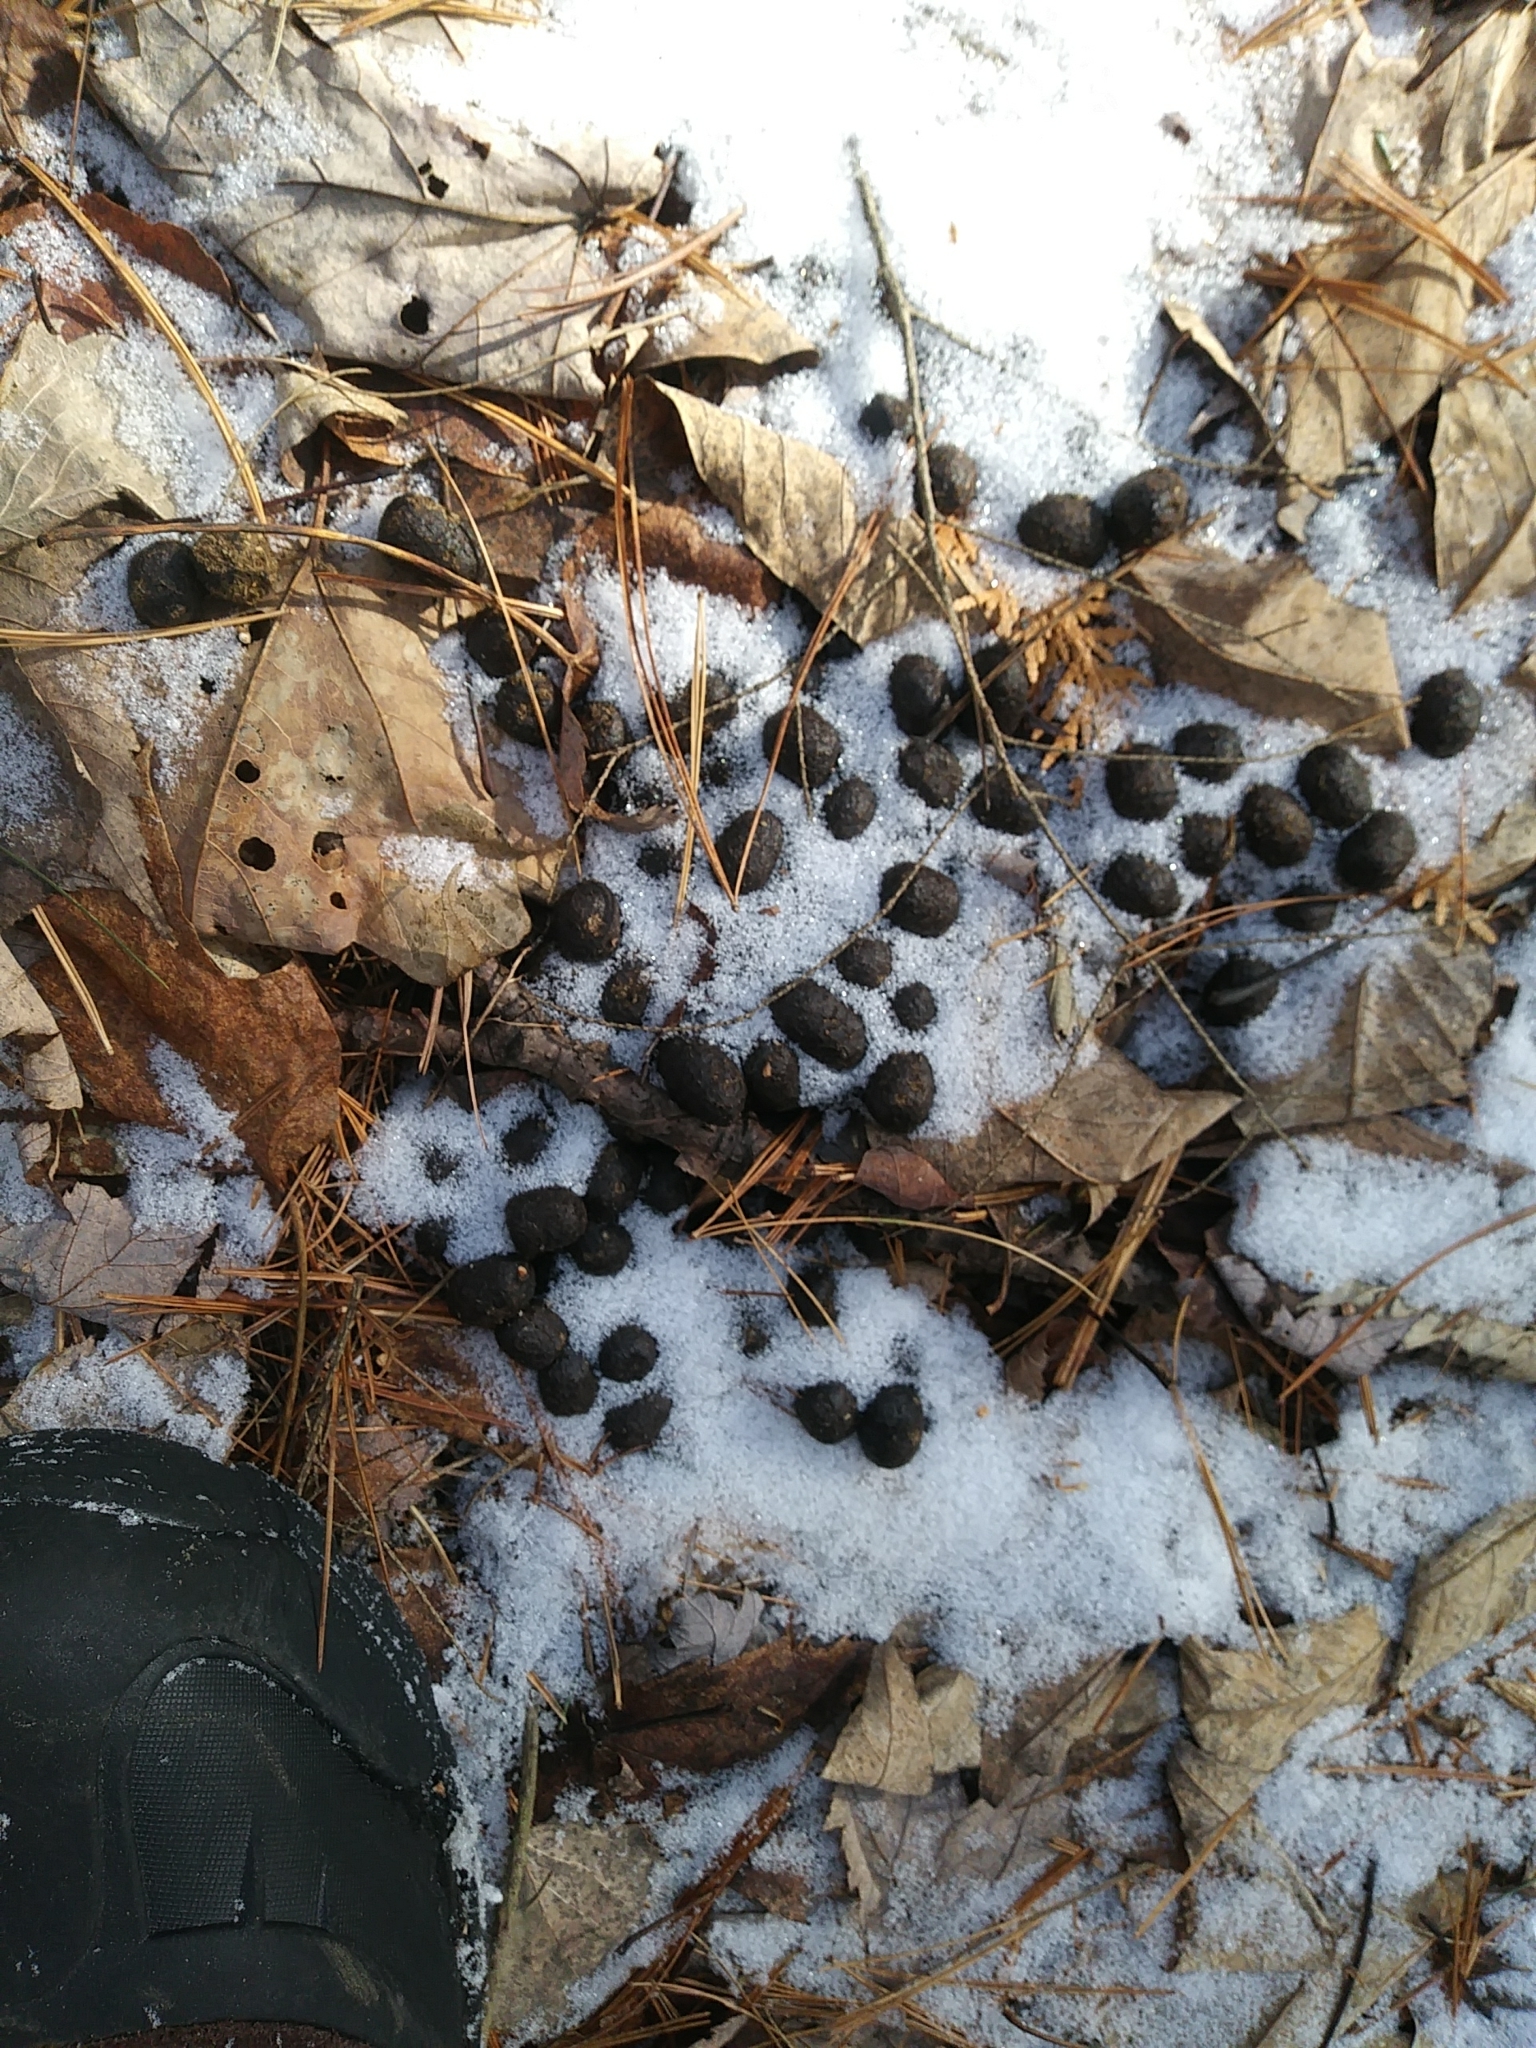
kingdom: Animalia
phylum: Chordata
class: Mammalia
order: Artiodactyla
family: Cervidae
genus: Odocoileus
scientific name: Odocoileus virginianus
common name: White-tailed deer
